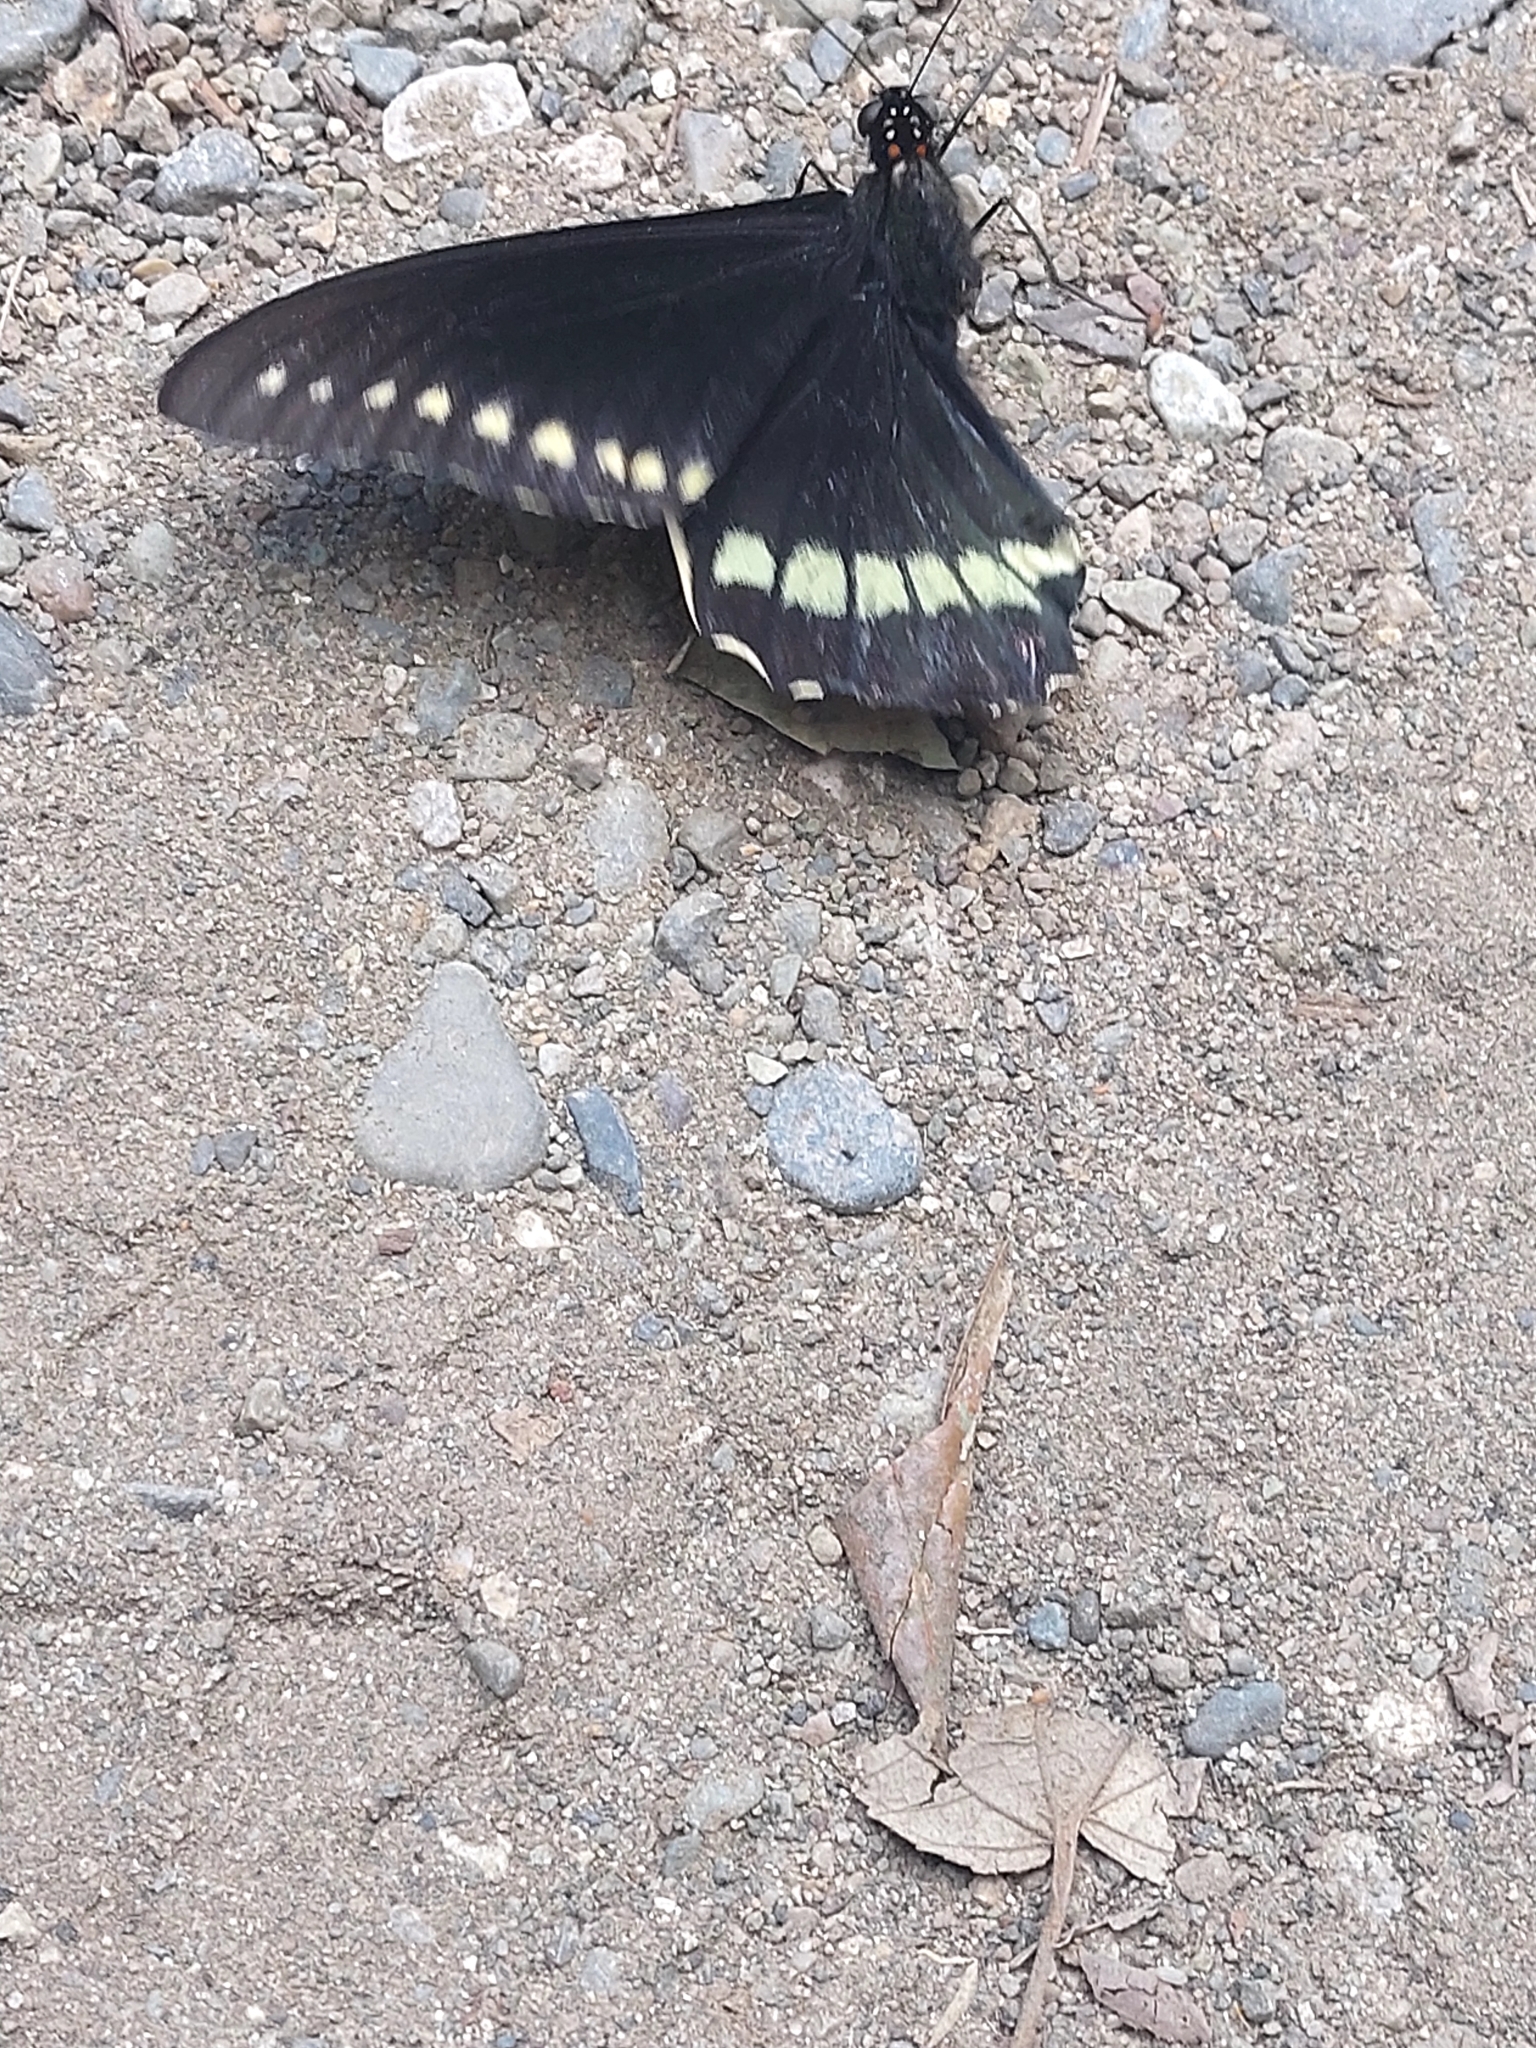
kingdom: Animalia
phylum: Arthropoda
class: Insecta
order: Lepidoptera
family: Papilionidae
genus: Battus
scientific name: Battus polydamas
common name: Polydamas swallowtail
